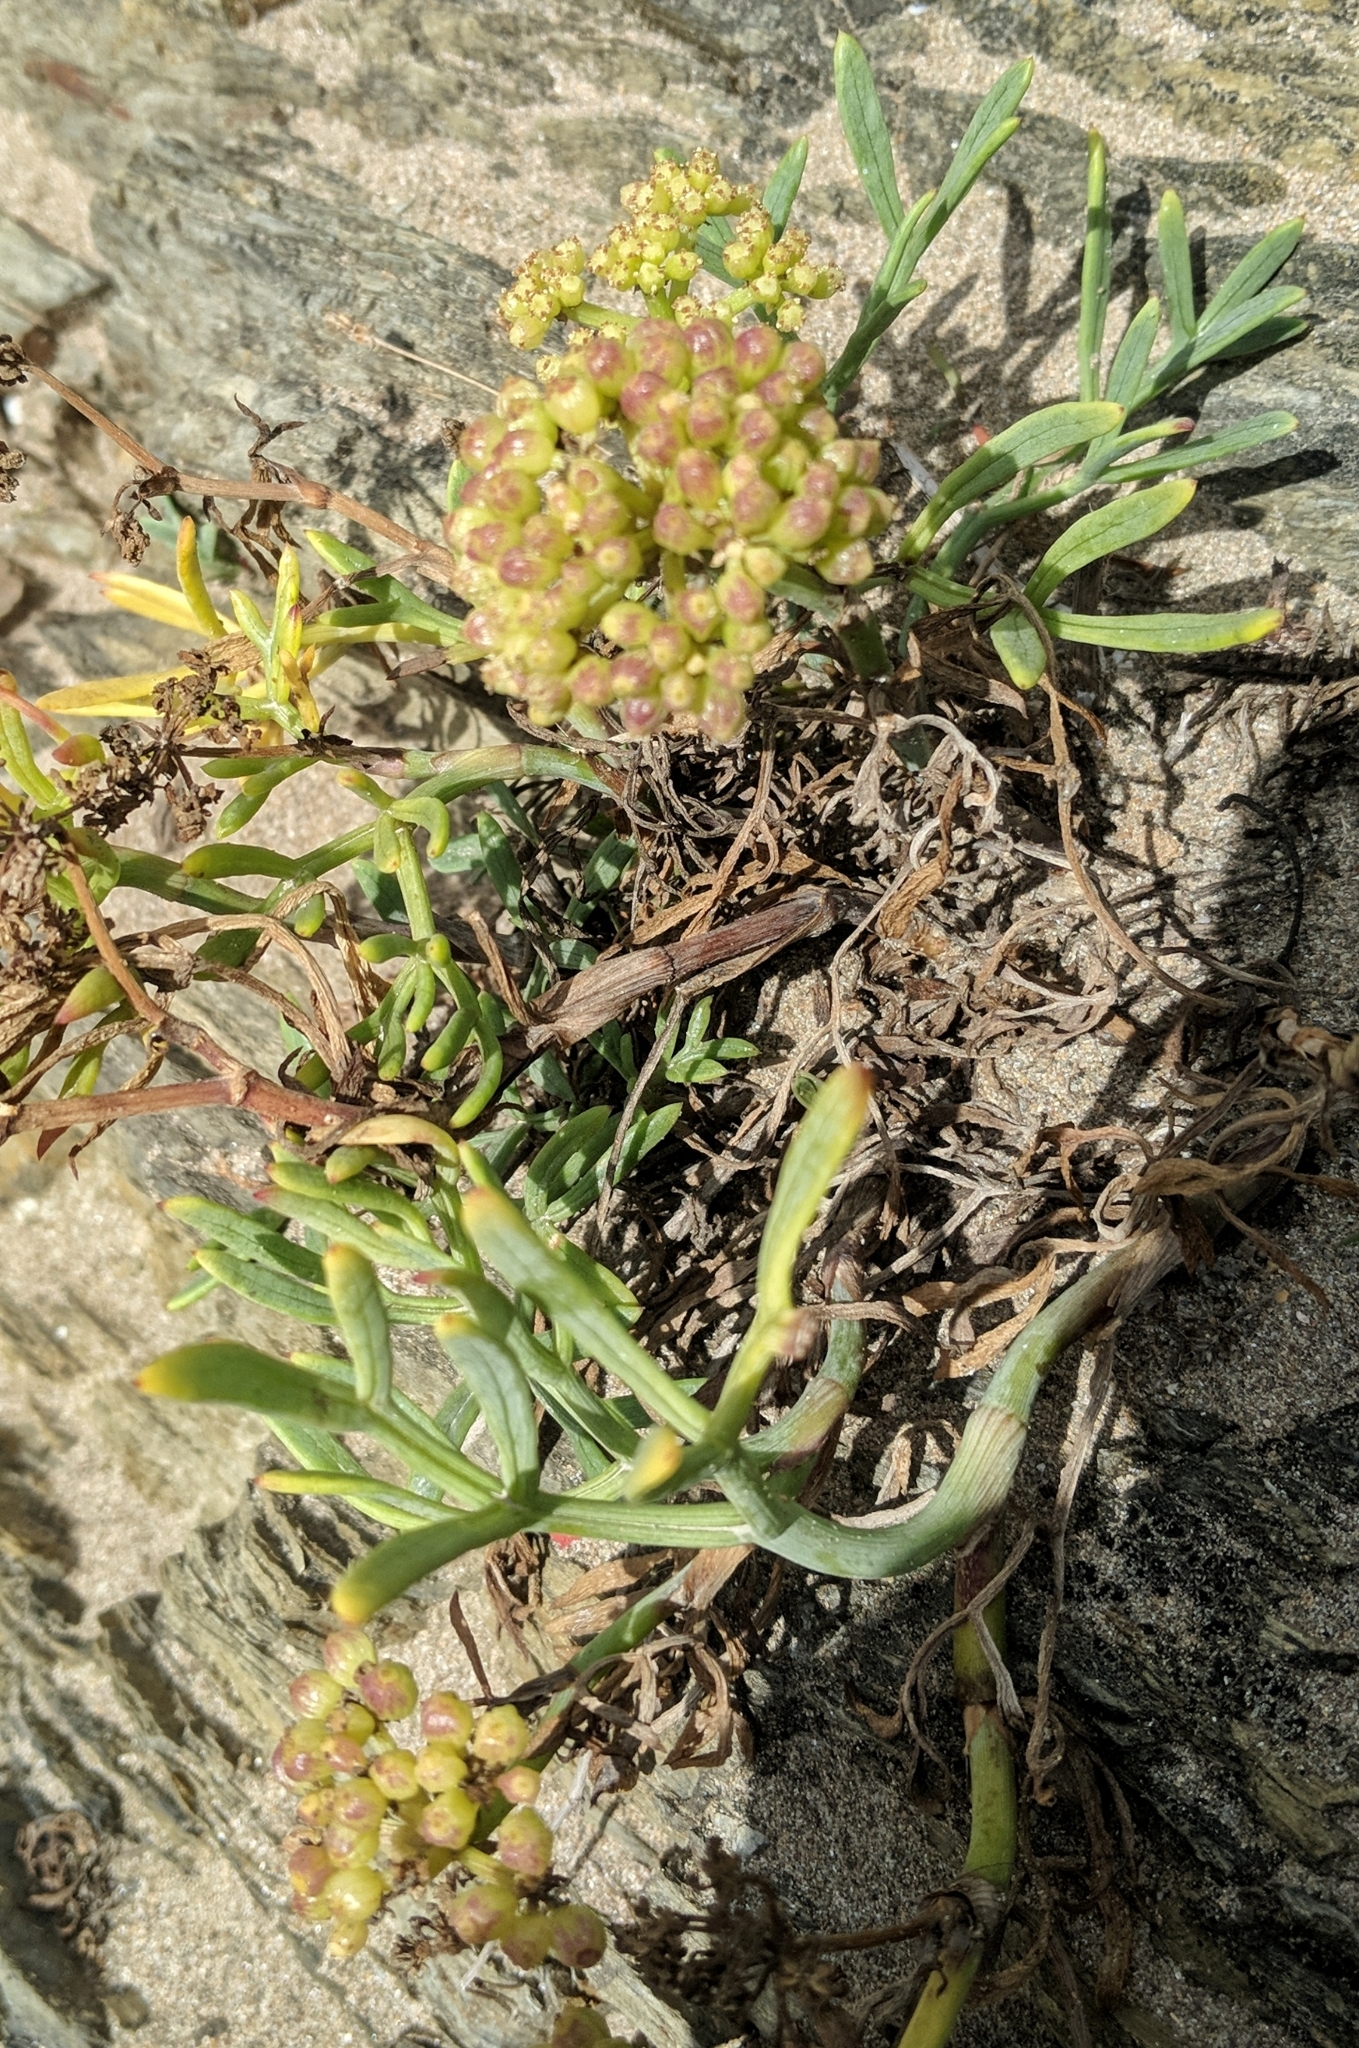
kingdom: Plantae
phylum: Tracheophyta
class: Magnoliopsida
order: Apiales
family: Apiaceae
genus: Crithmum
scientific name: Crithmum maritimum
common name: Rock samphire
